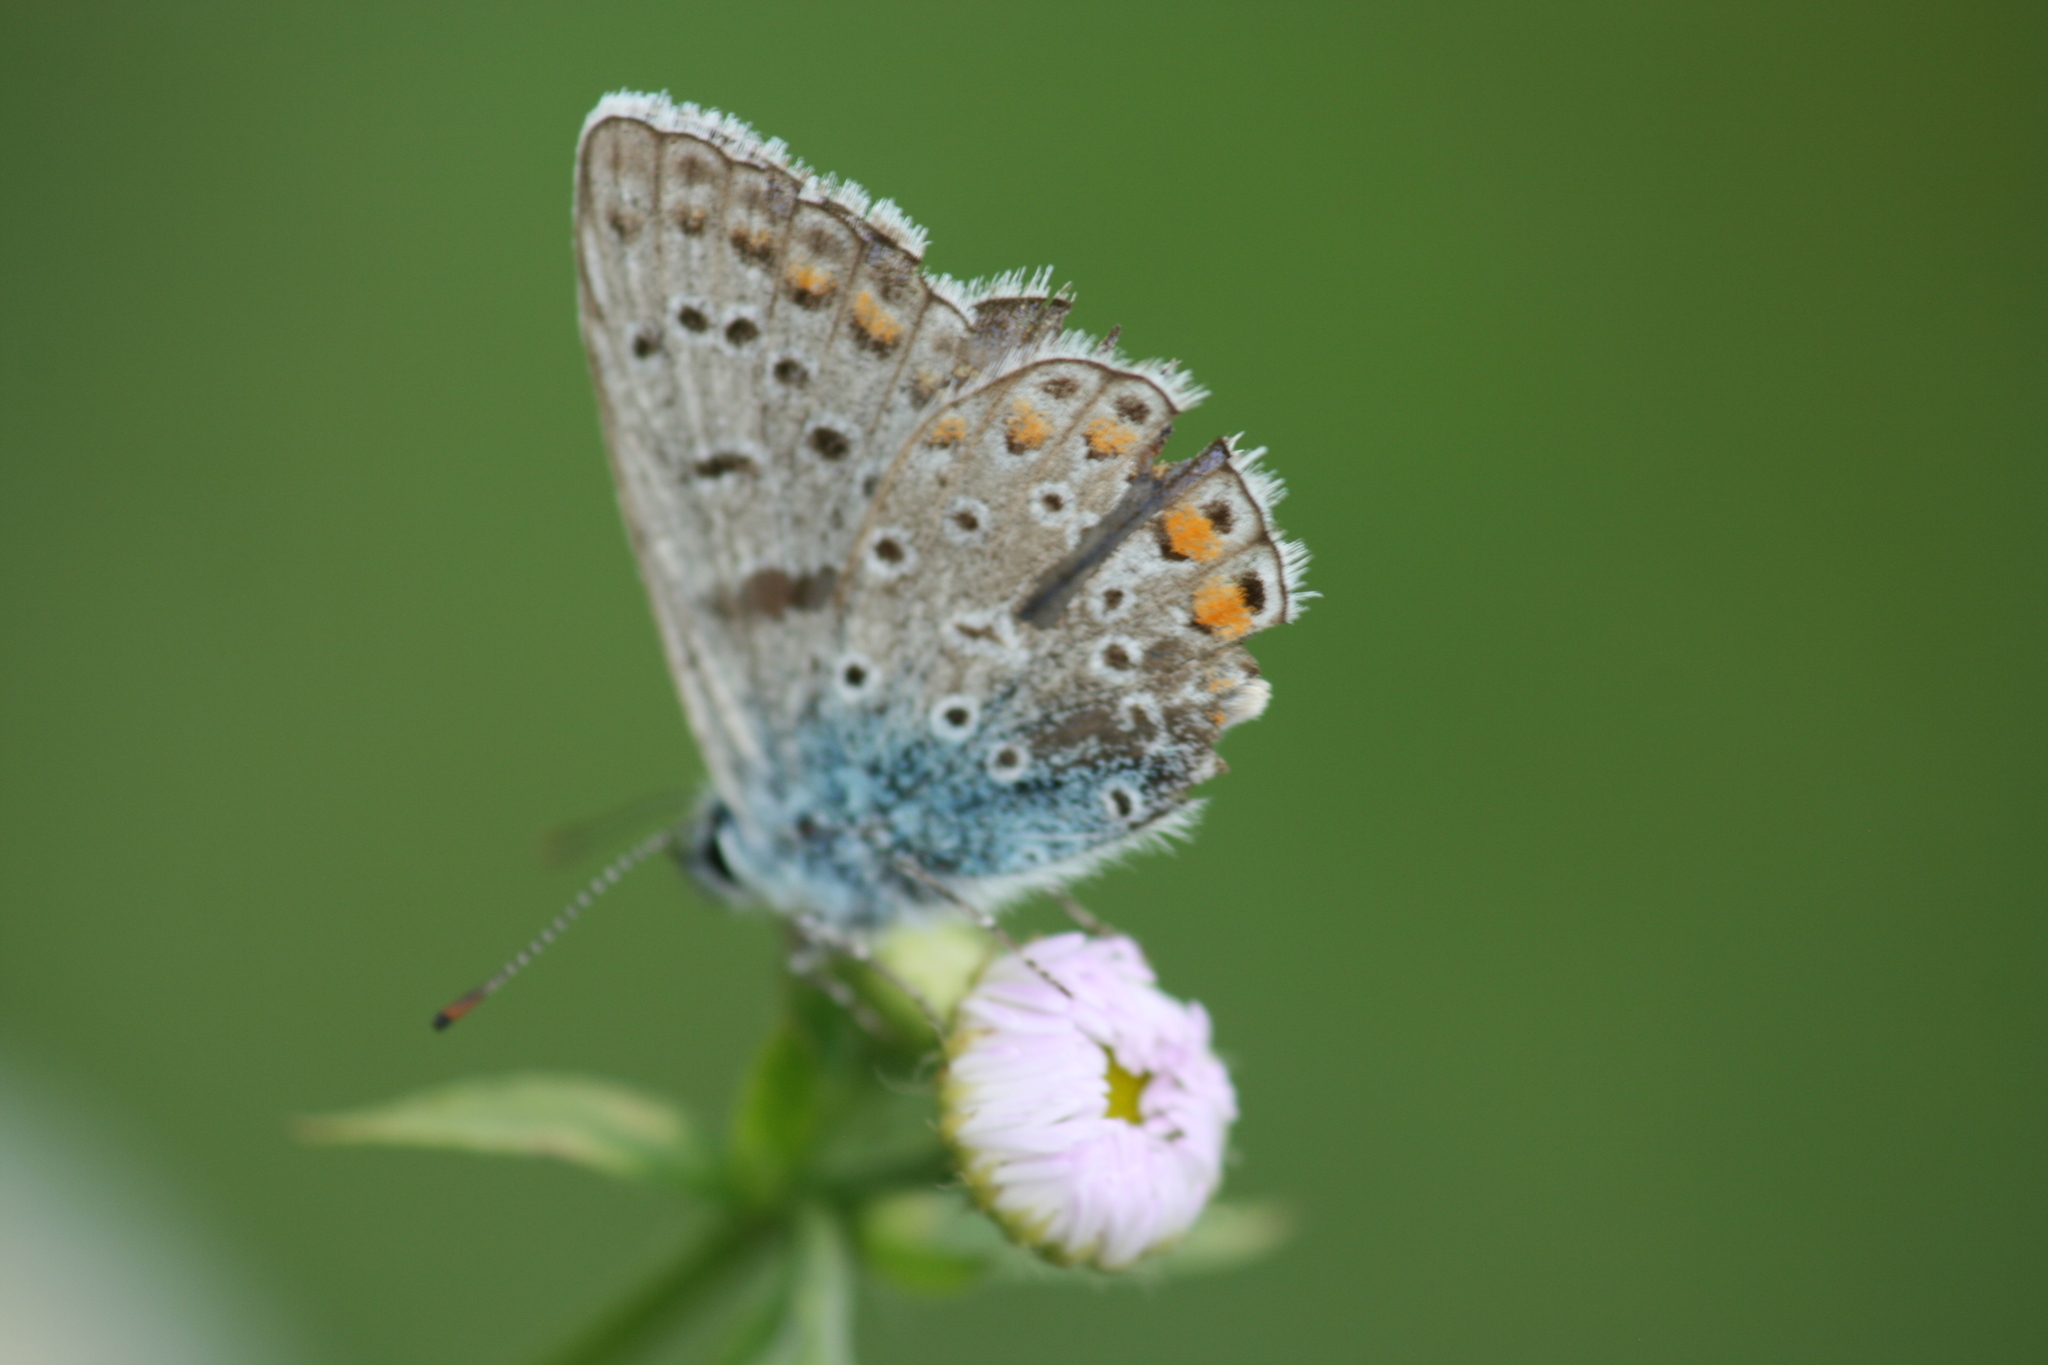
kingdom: Animalia
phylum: Arthropoda
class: Insecta
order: Lepidoptera
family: Lycaenidae
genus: Polyommatus
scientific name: Polyommatus icarus
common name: Common blue
